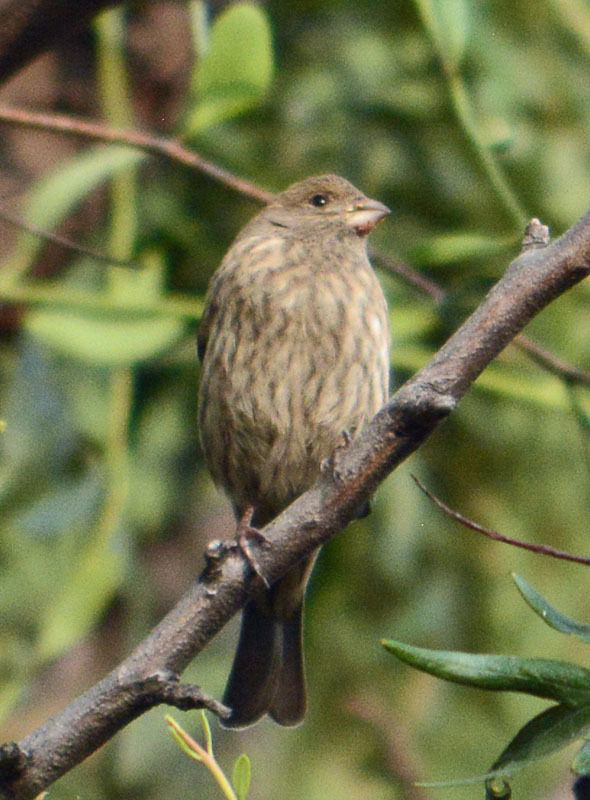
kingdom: Animalia
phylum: Chordata
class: Aves
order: Passeriformes
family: Fringillidae
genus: Haemorhous
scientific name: Haemorhous mexicanus
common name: House finch
